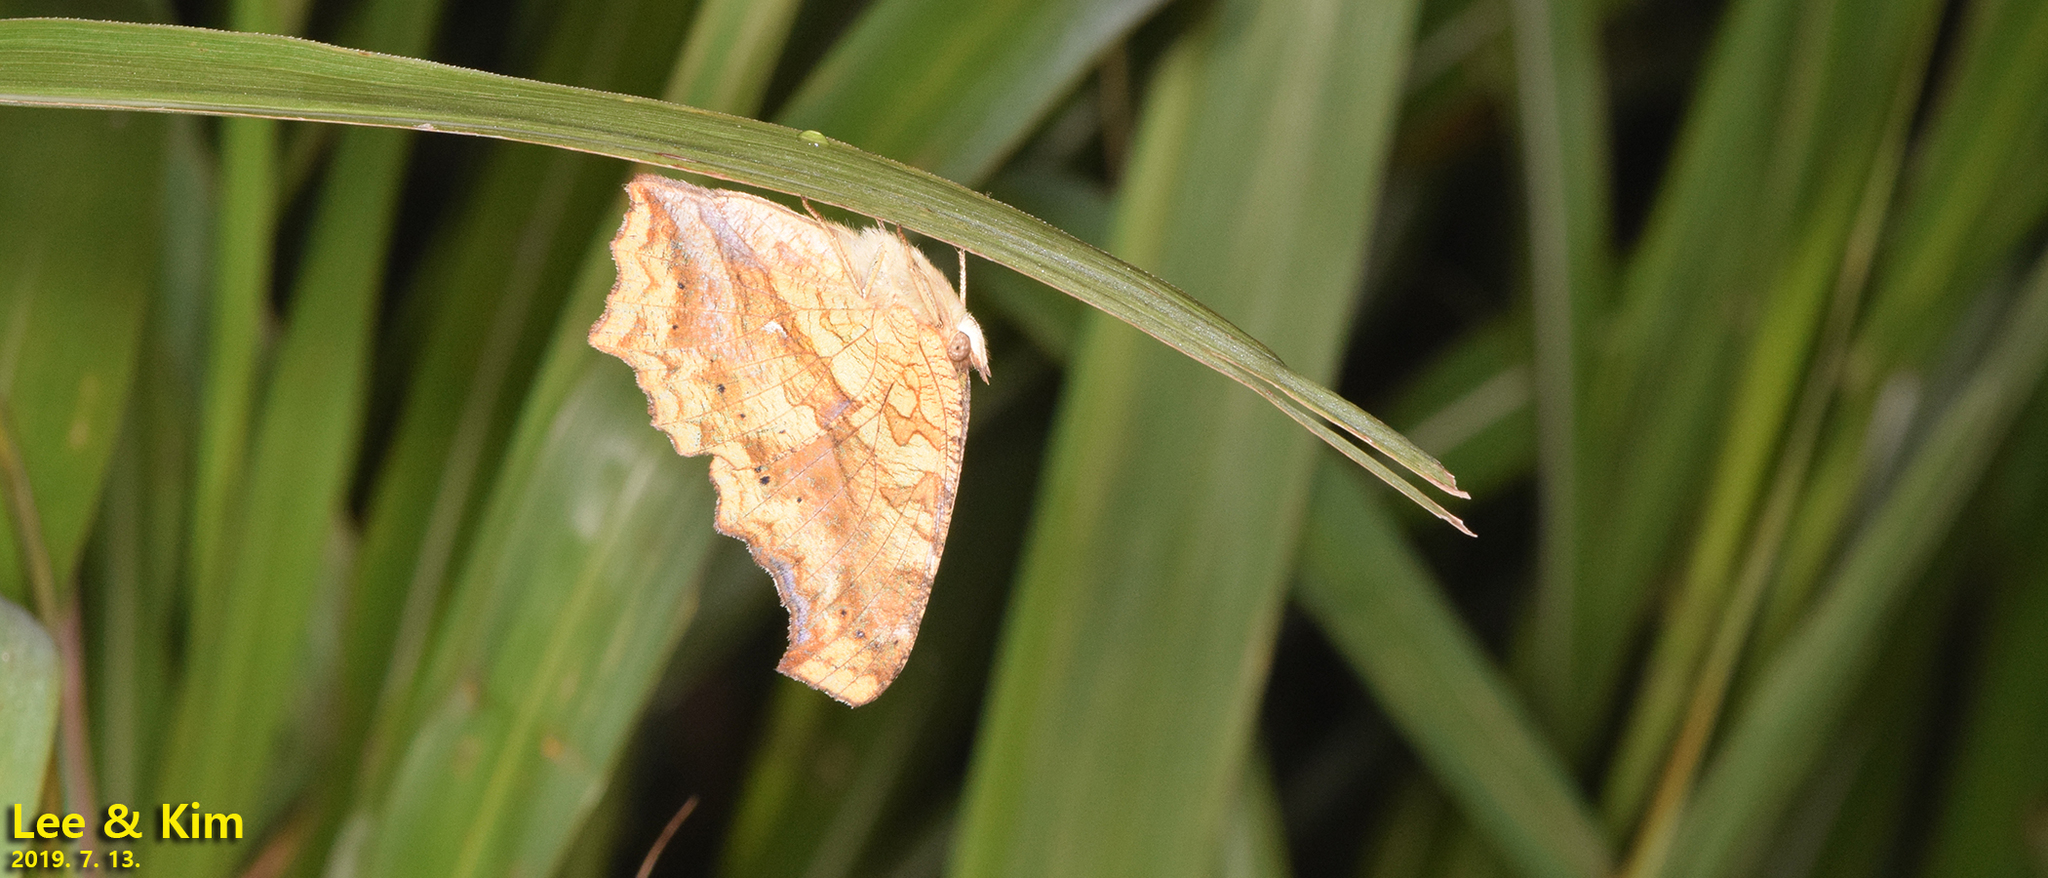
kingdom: Animalia
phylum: Arthropoda
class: Insecta
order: Lepidoptera
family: Nymphalidae
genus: Polygonia
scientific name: Polygonia c-aureum
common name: Asian comma
